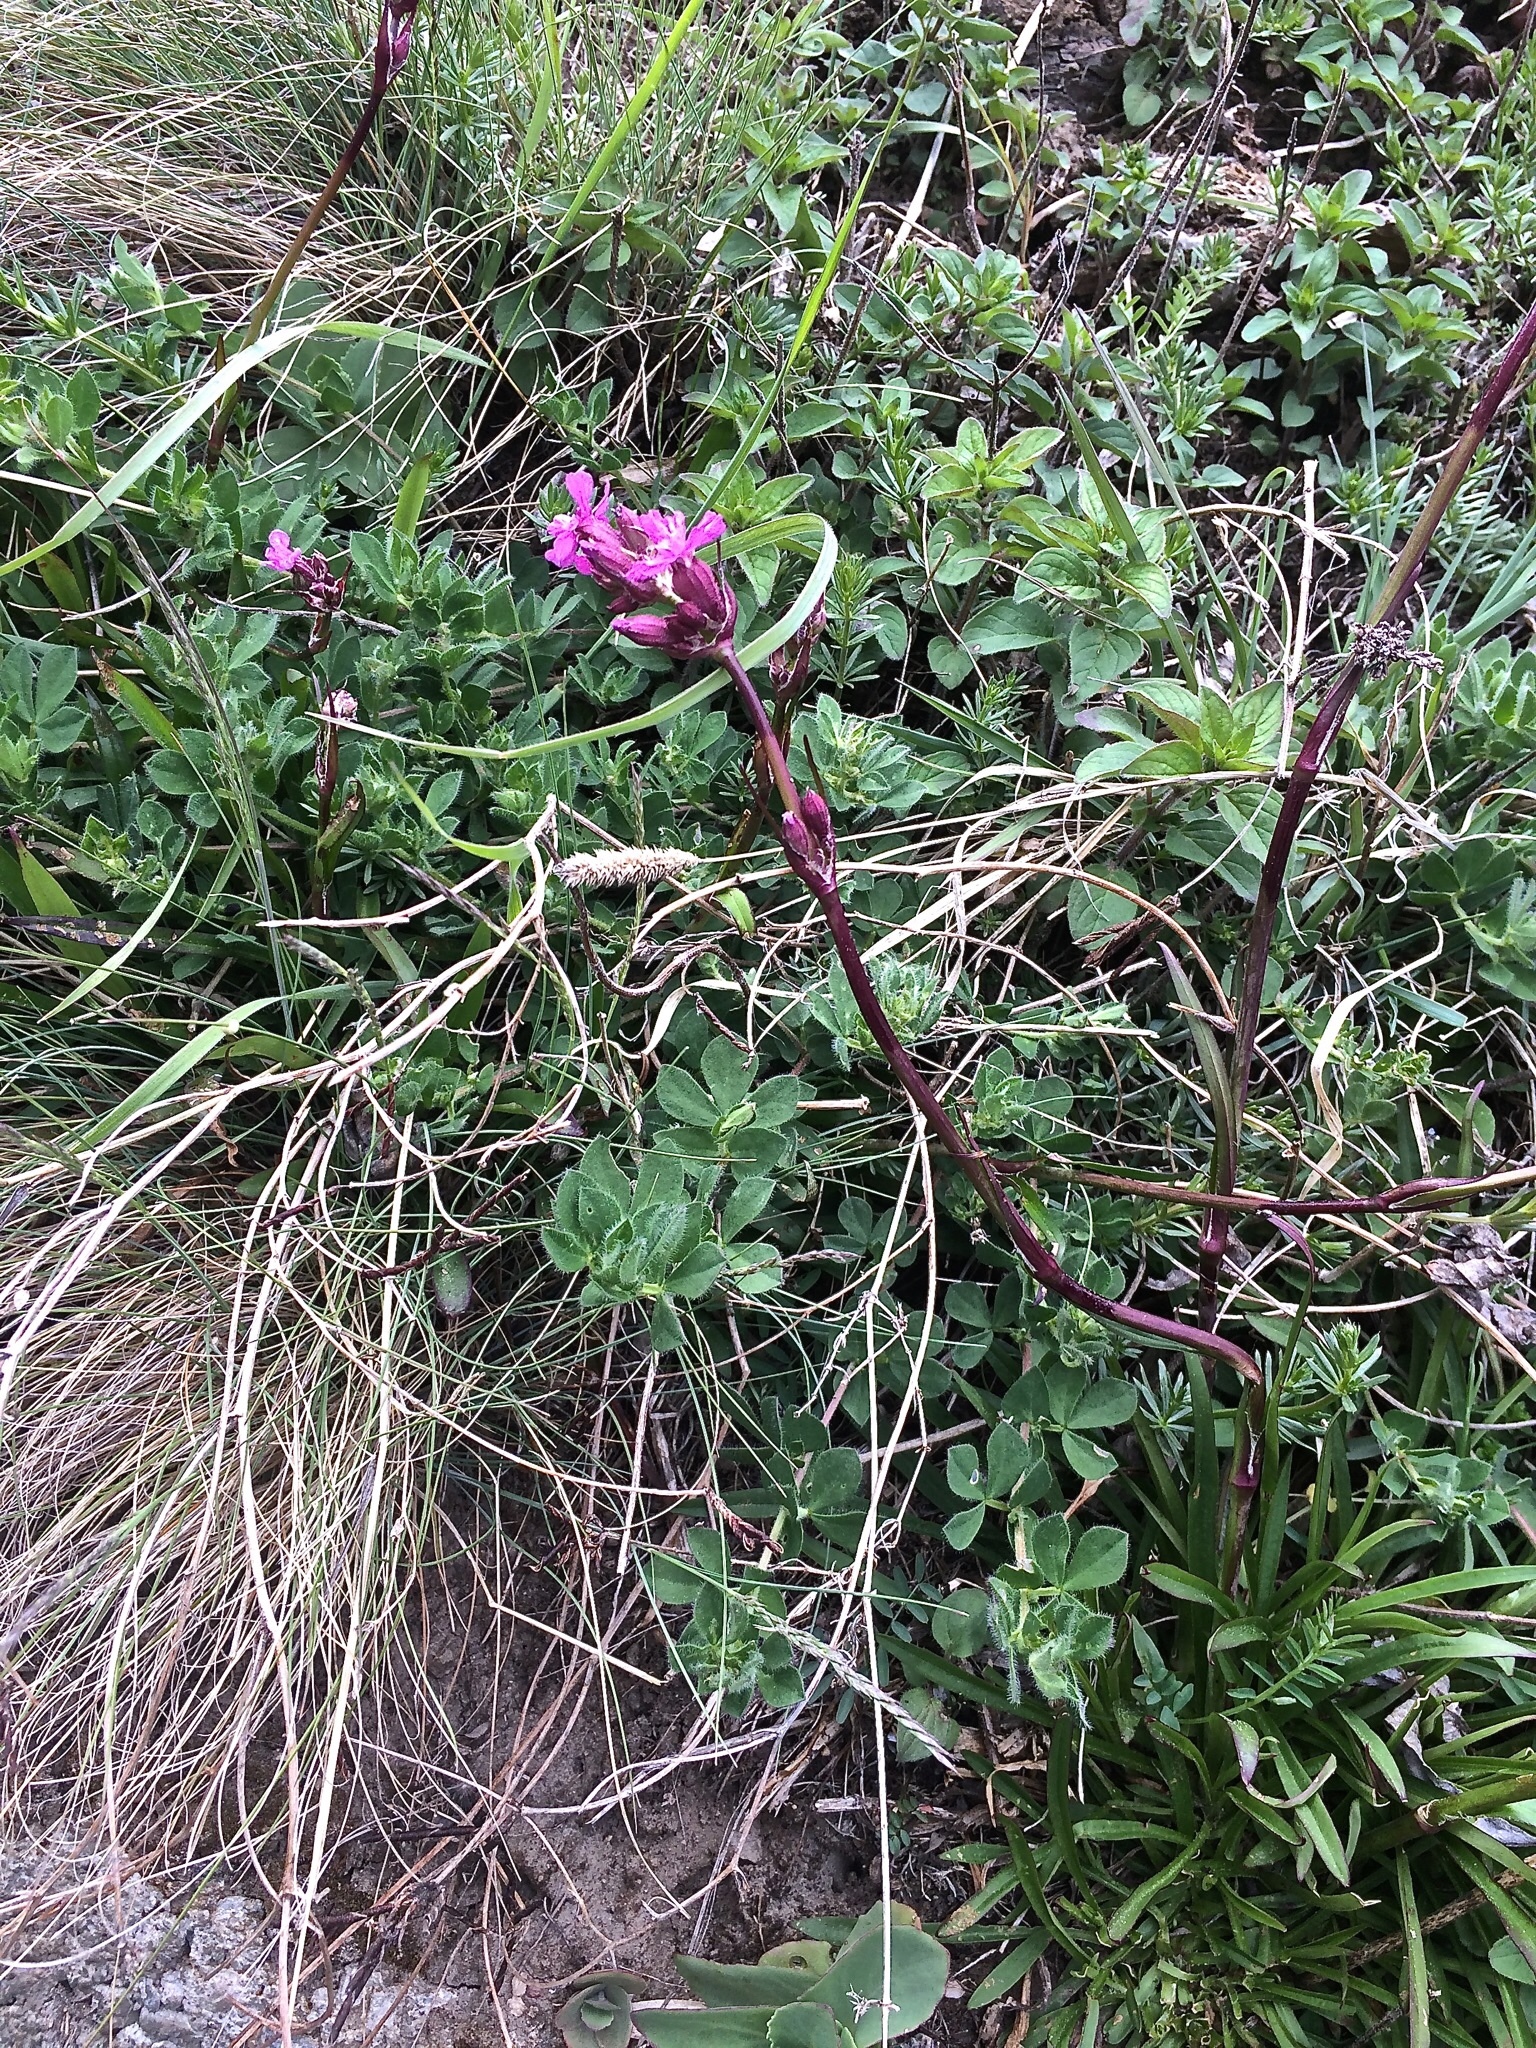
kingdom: Plantae
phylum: Tracheophyta
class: Magnoliopsida
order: Caryophyllales
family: Caryophyllaceae
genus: Viscaria
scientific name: Viscaria vulgaris
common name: Clammy campion
